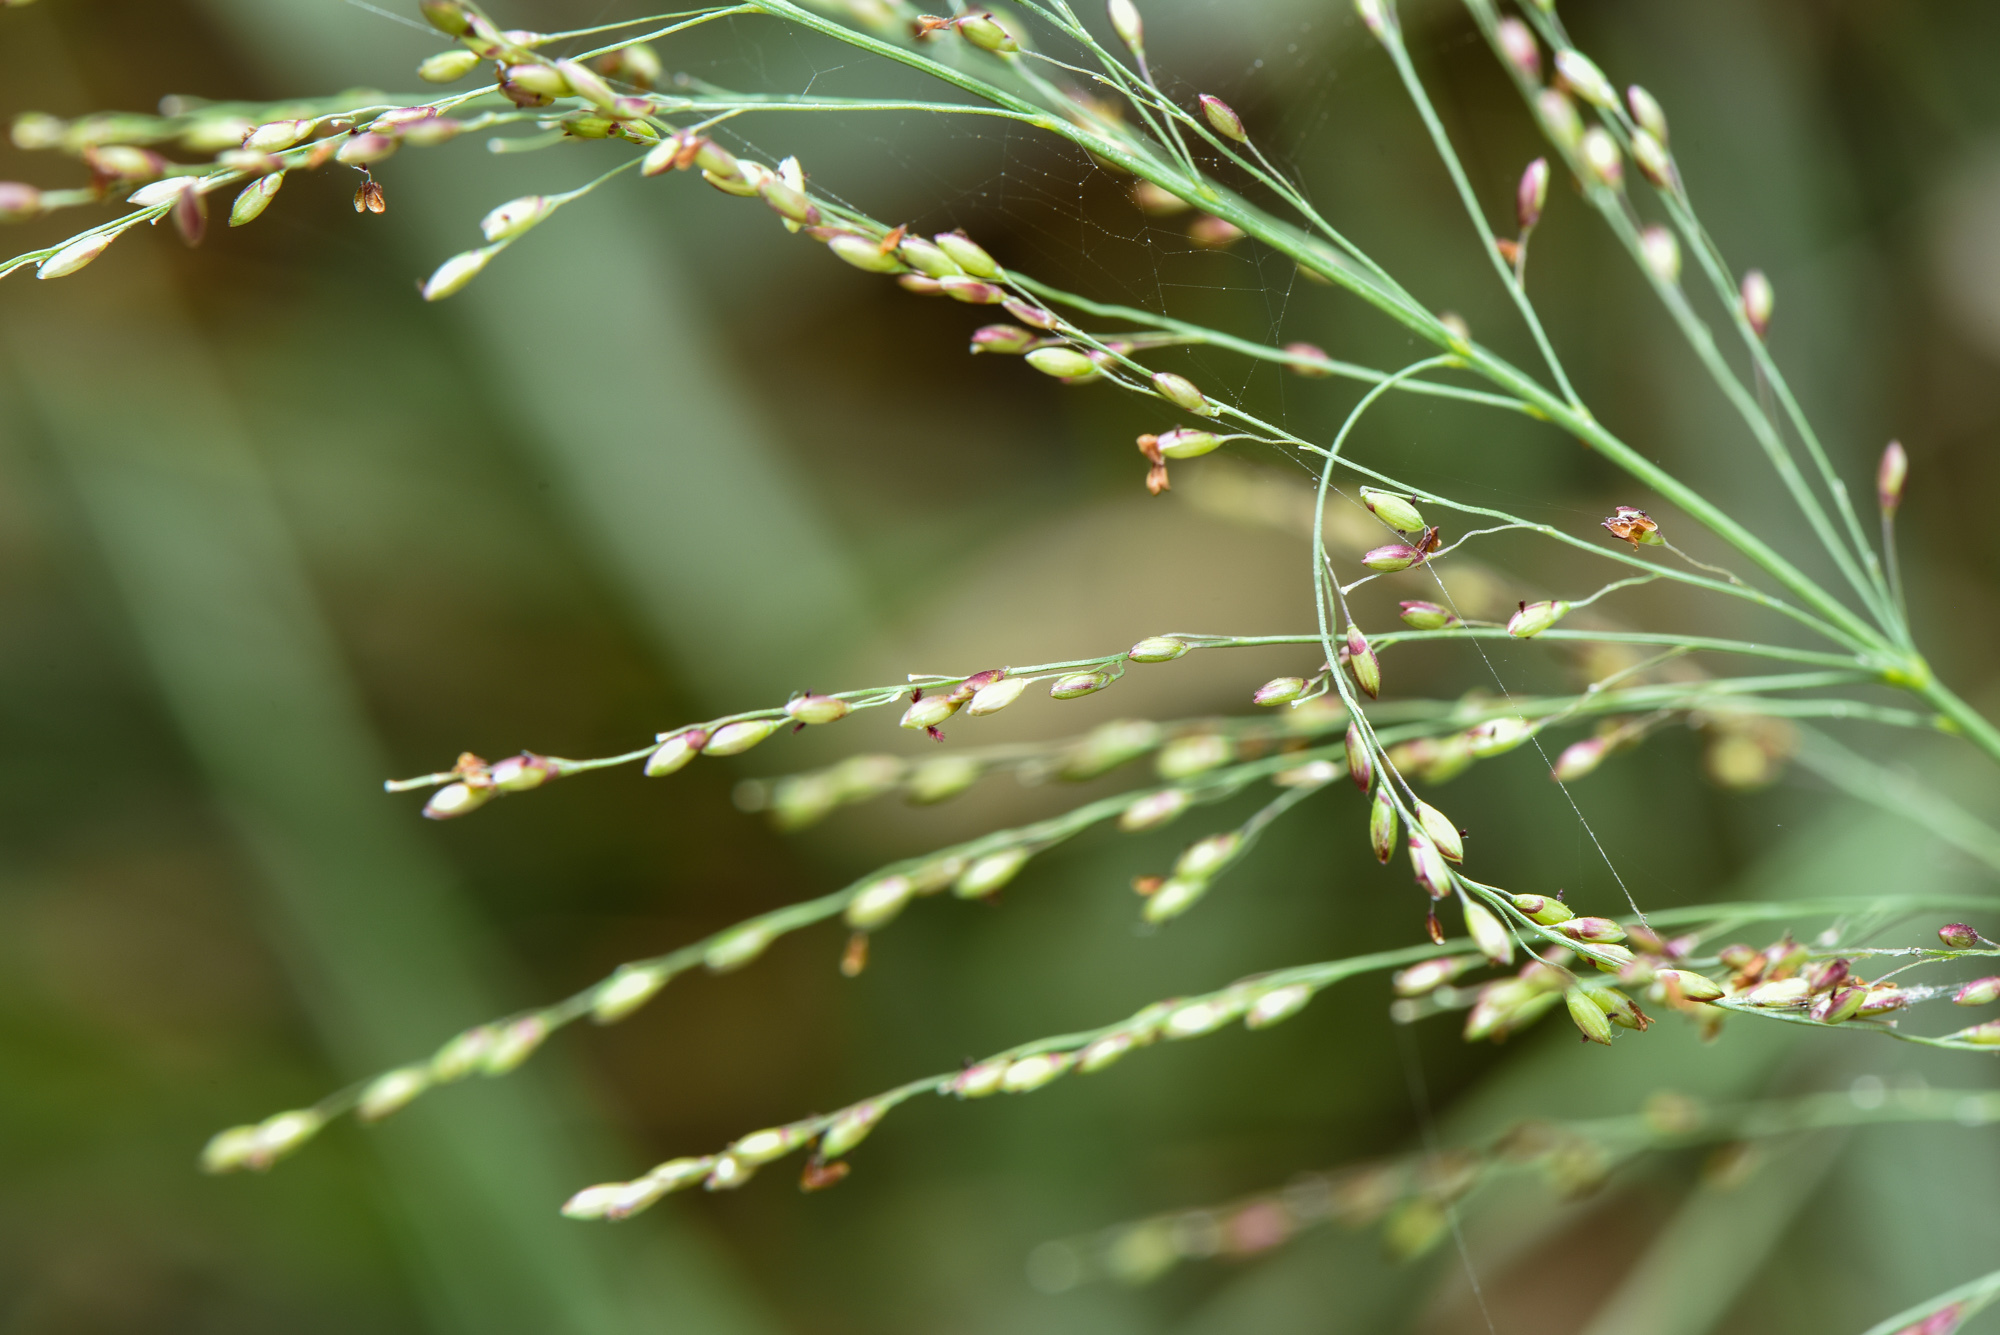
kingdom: Plantae
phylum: Tracheophyta
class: Liliopsida
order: Poales
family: Poaceae
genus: Megathyrsus
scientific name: Megathyrsus maximus
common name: Guineagrass
